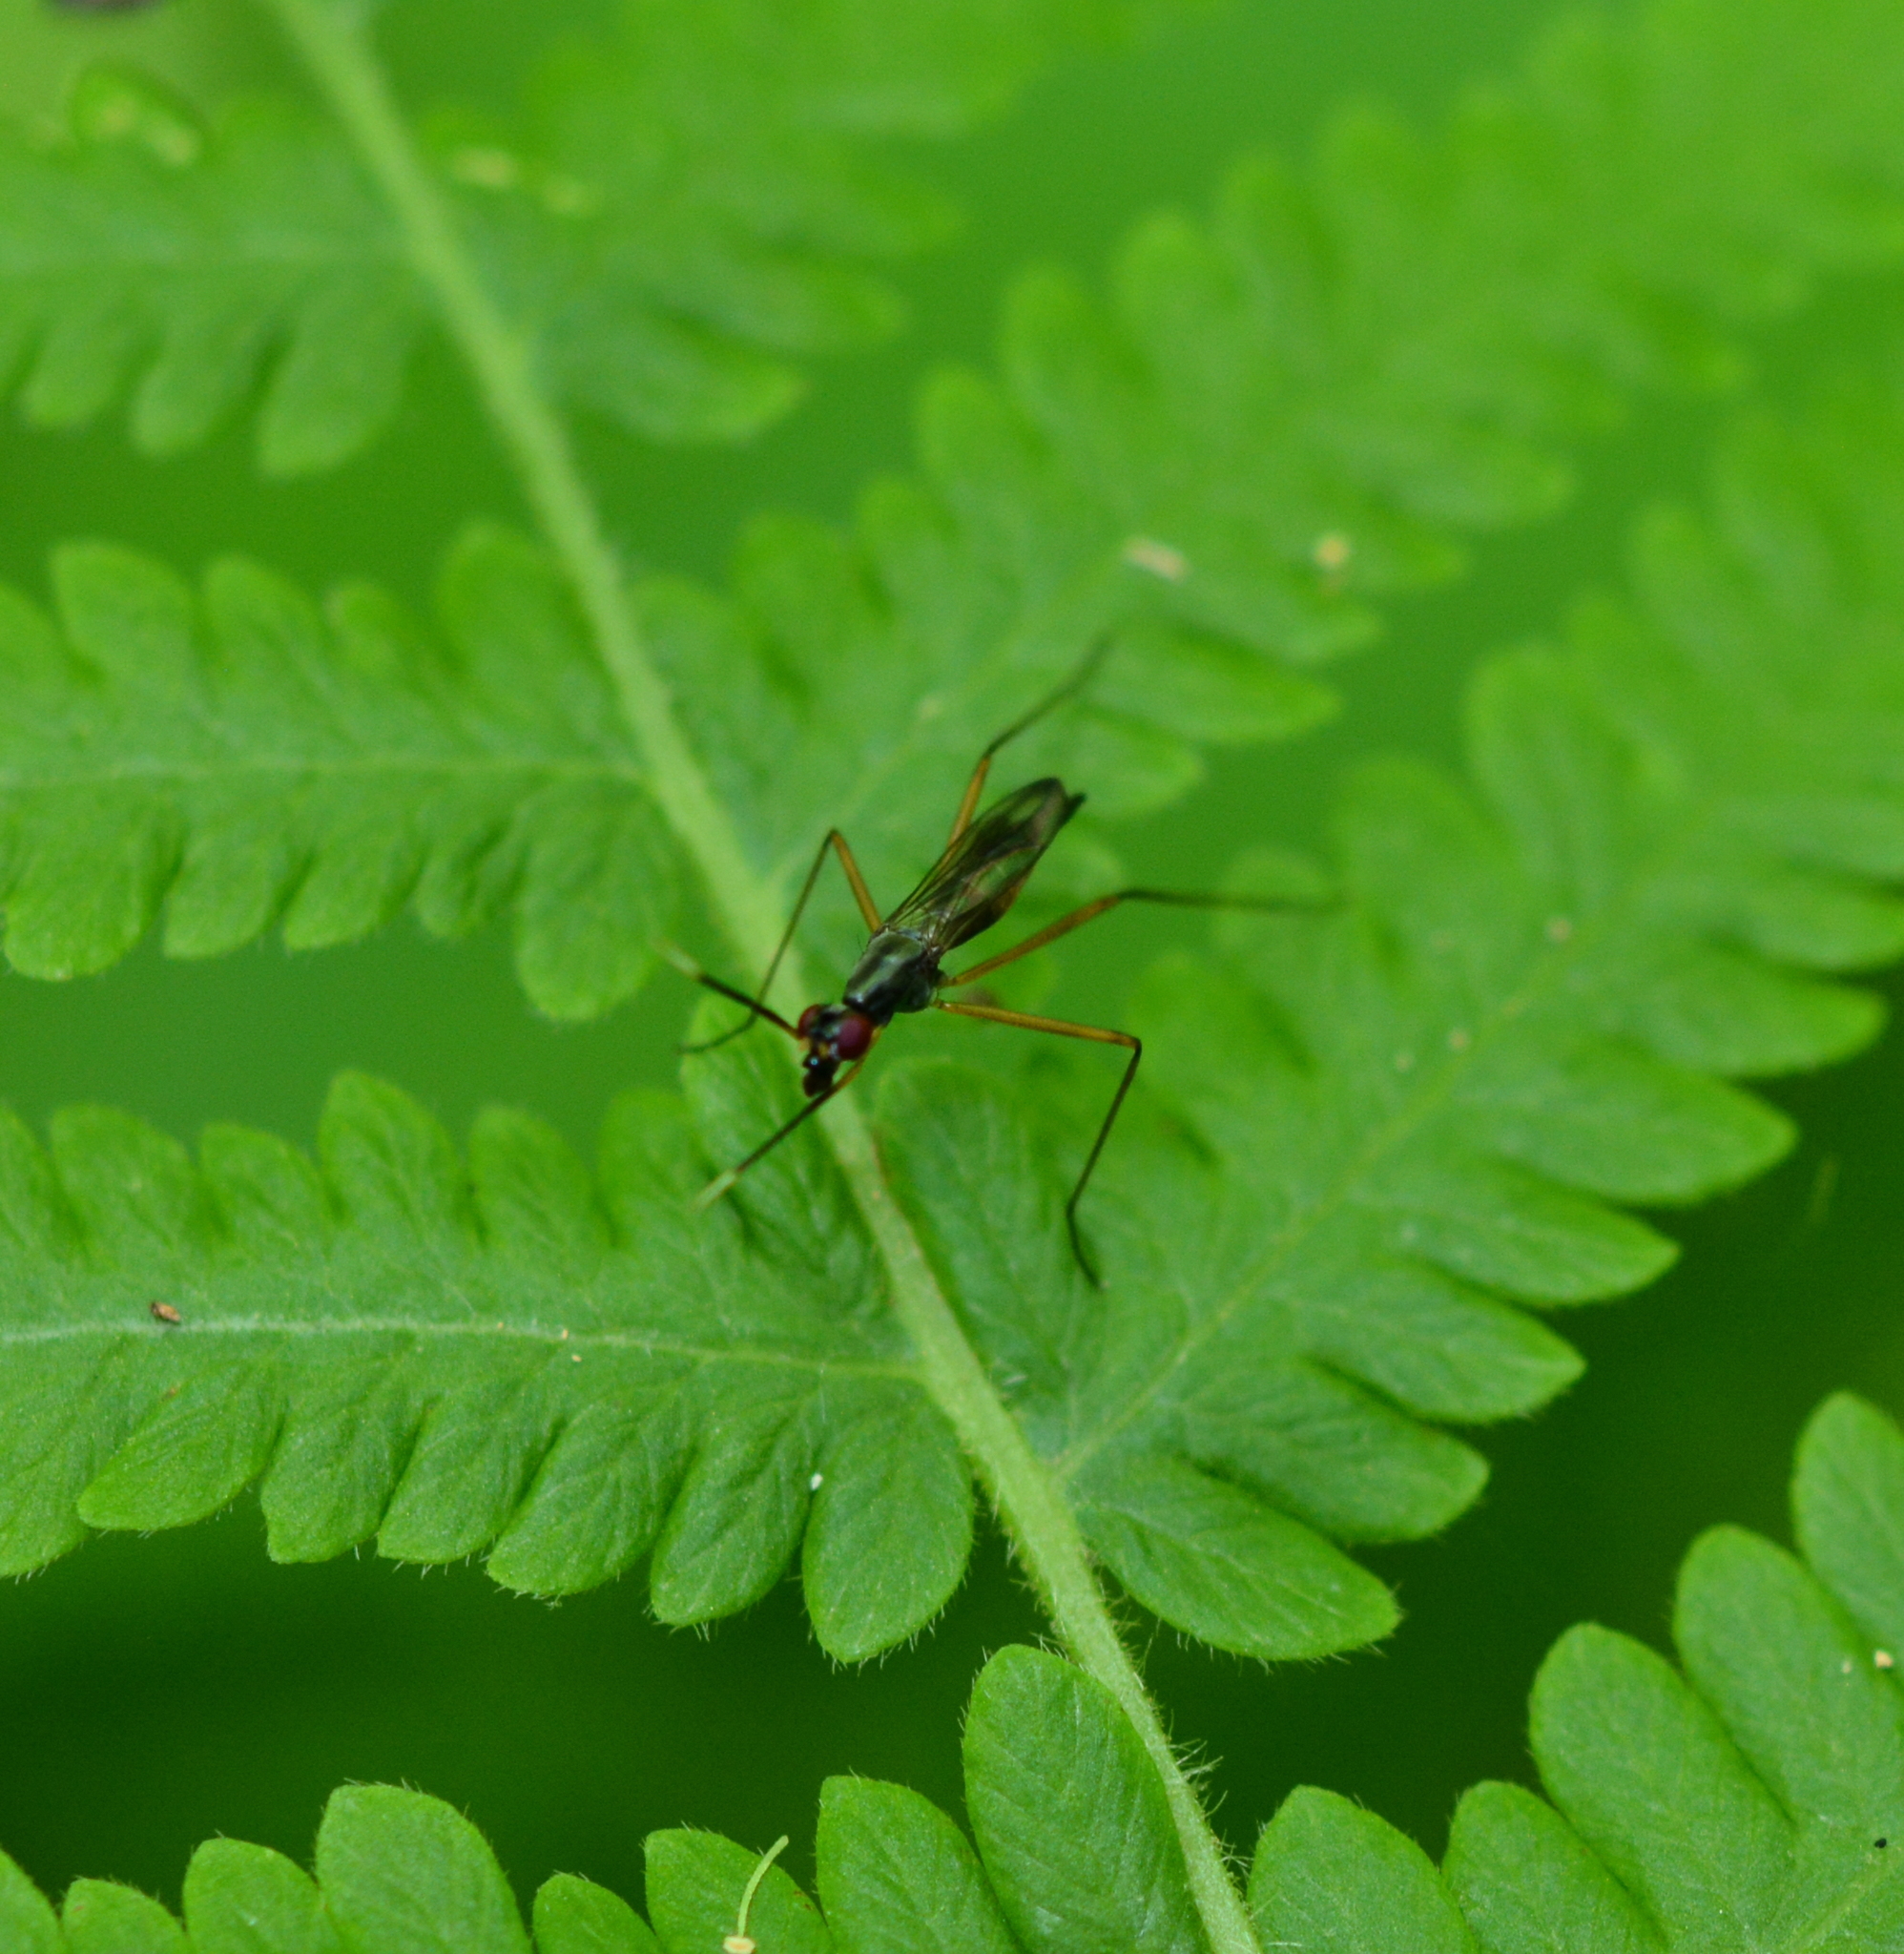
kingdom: Animalia
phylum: Arthropoda
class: Insecta
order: Diptera
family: Micropezidae
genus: Rainieria
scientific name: Rainieria antennaepes
